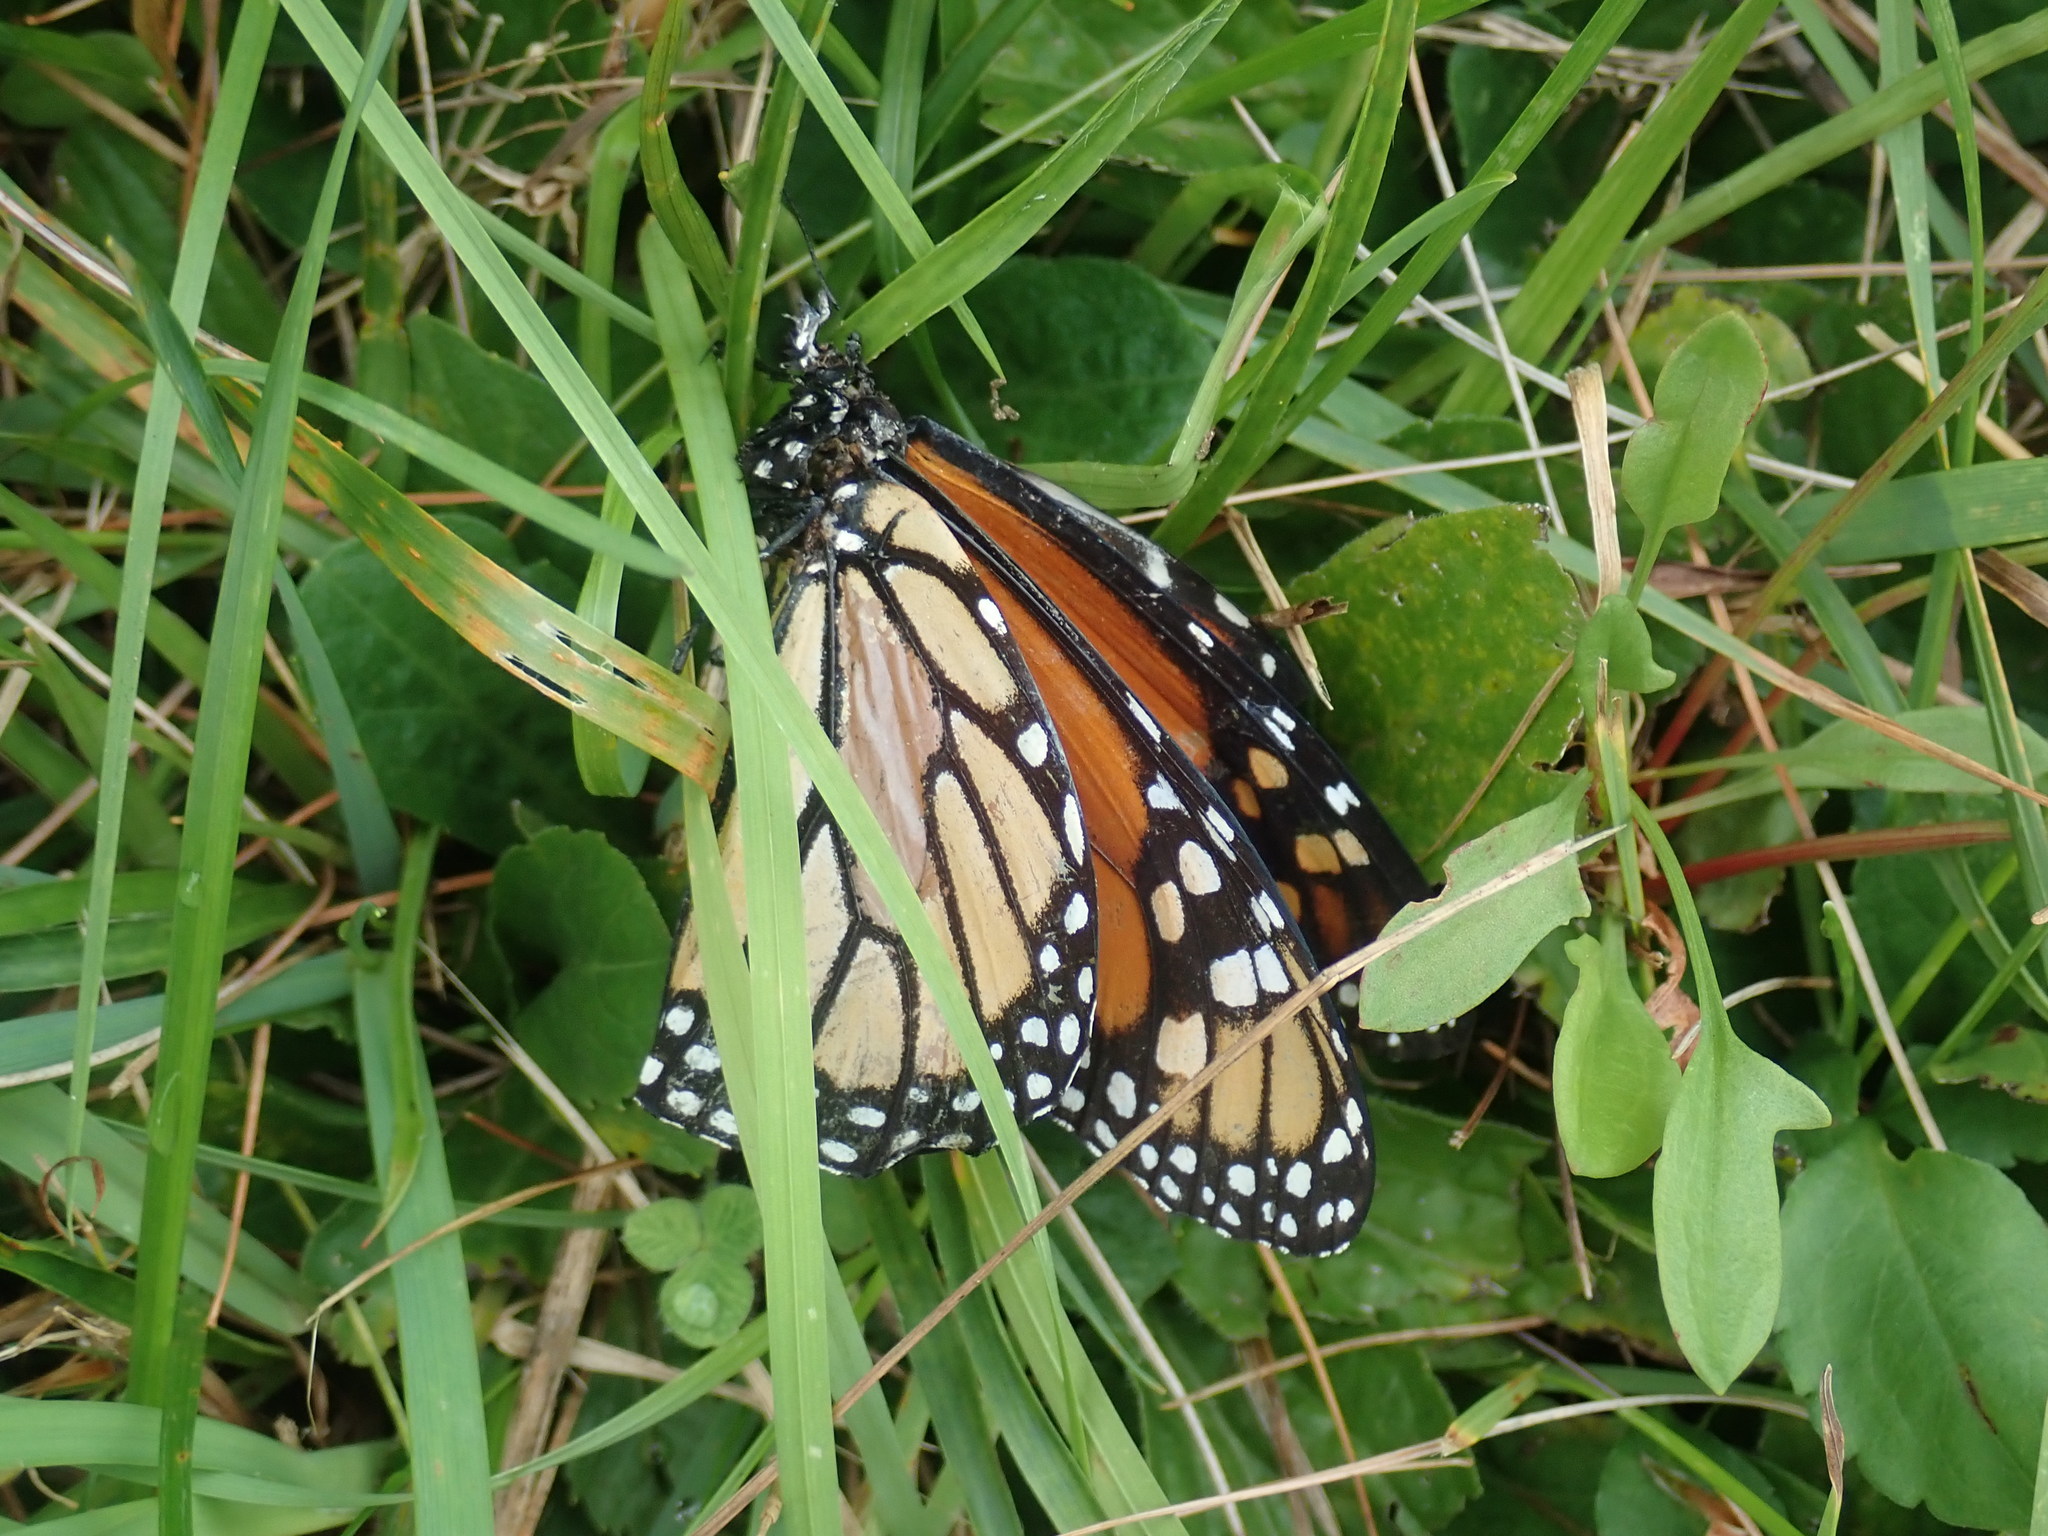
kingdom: Animalia
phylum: Arthropoda
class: Insecta
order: Lepidoptera
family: Nymphalidae
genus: Danaus
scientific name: Danaus plexippus
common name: Monarch
